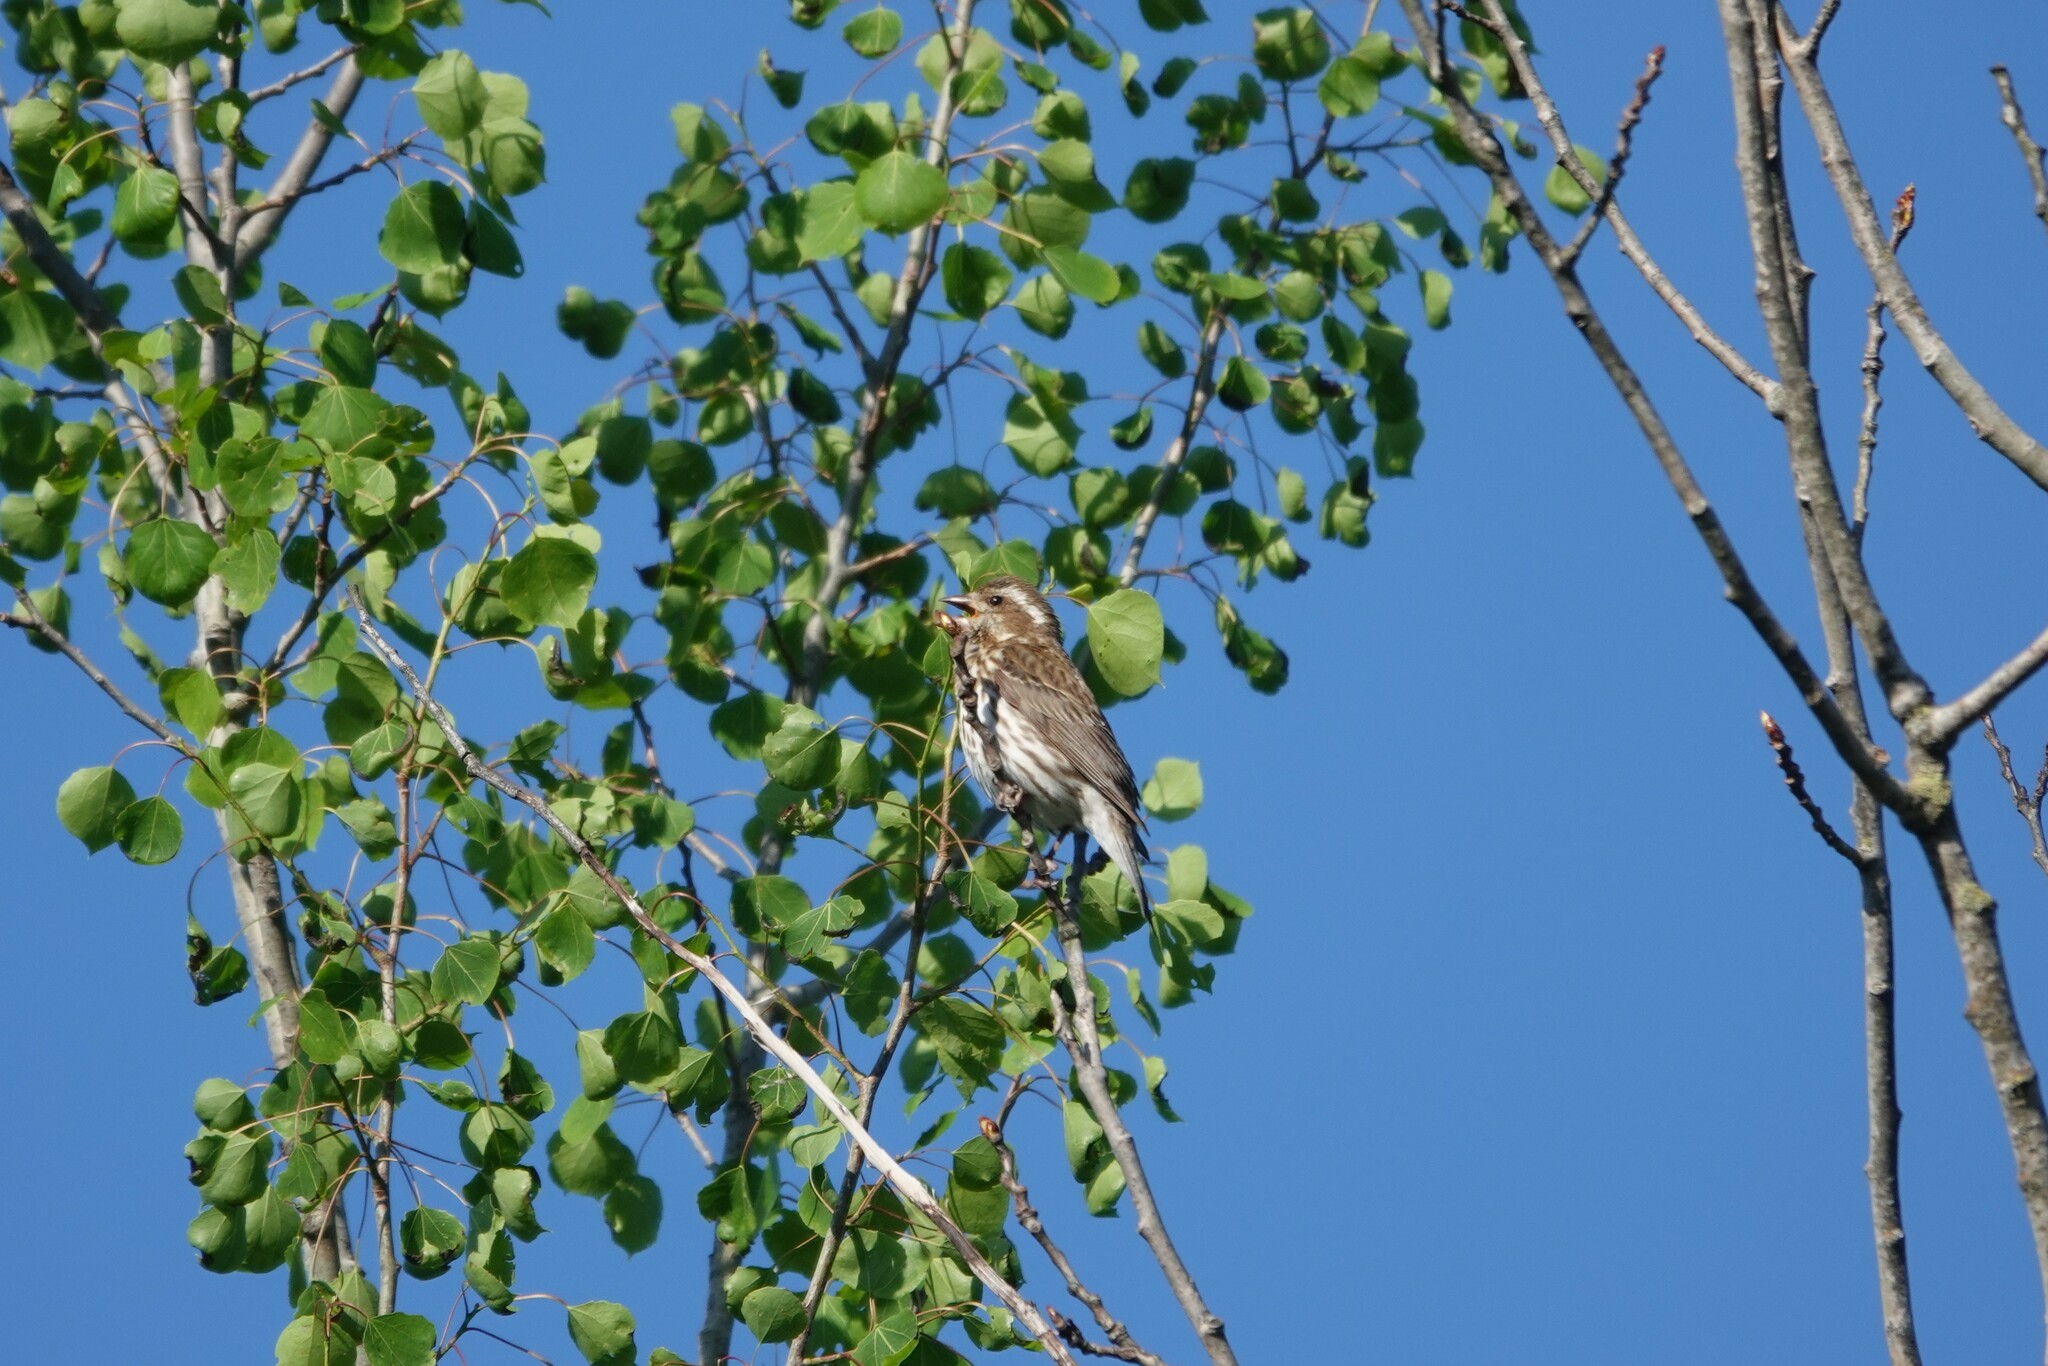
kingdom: Animalia
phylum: Chordata
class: Aves
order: Passeriformes
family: Fringillidae
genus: Haemorhous
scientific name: Haemorhous purpureus
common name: Purple finch
